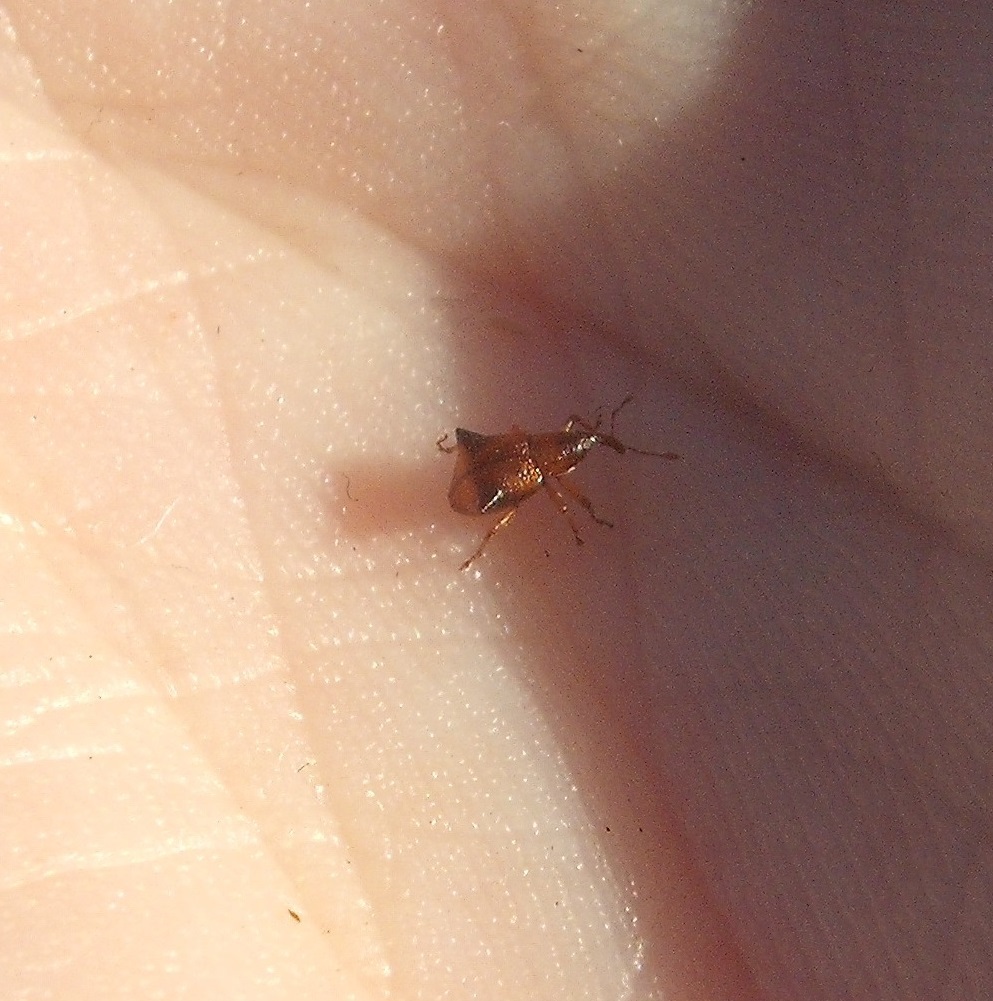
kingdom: Animalia
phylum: Arthropoda
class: Insecta
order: Coleoptera
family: Curculionidae
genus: Oropterus
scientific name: Oropterus coniger
